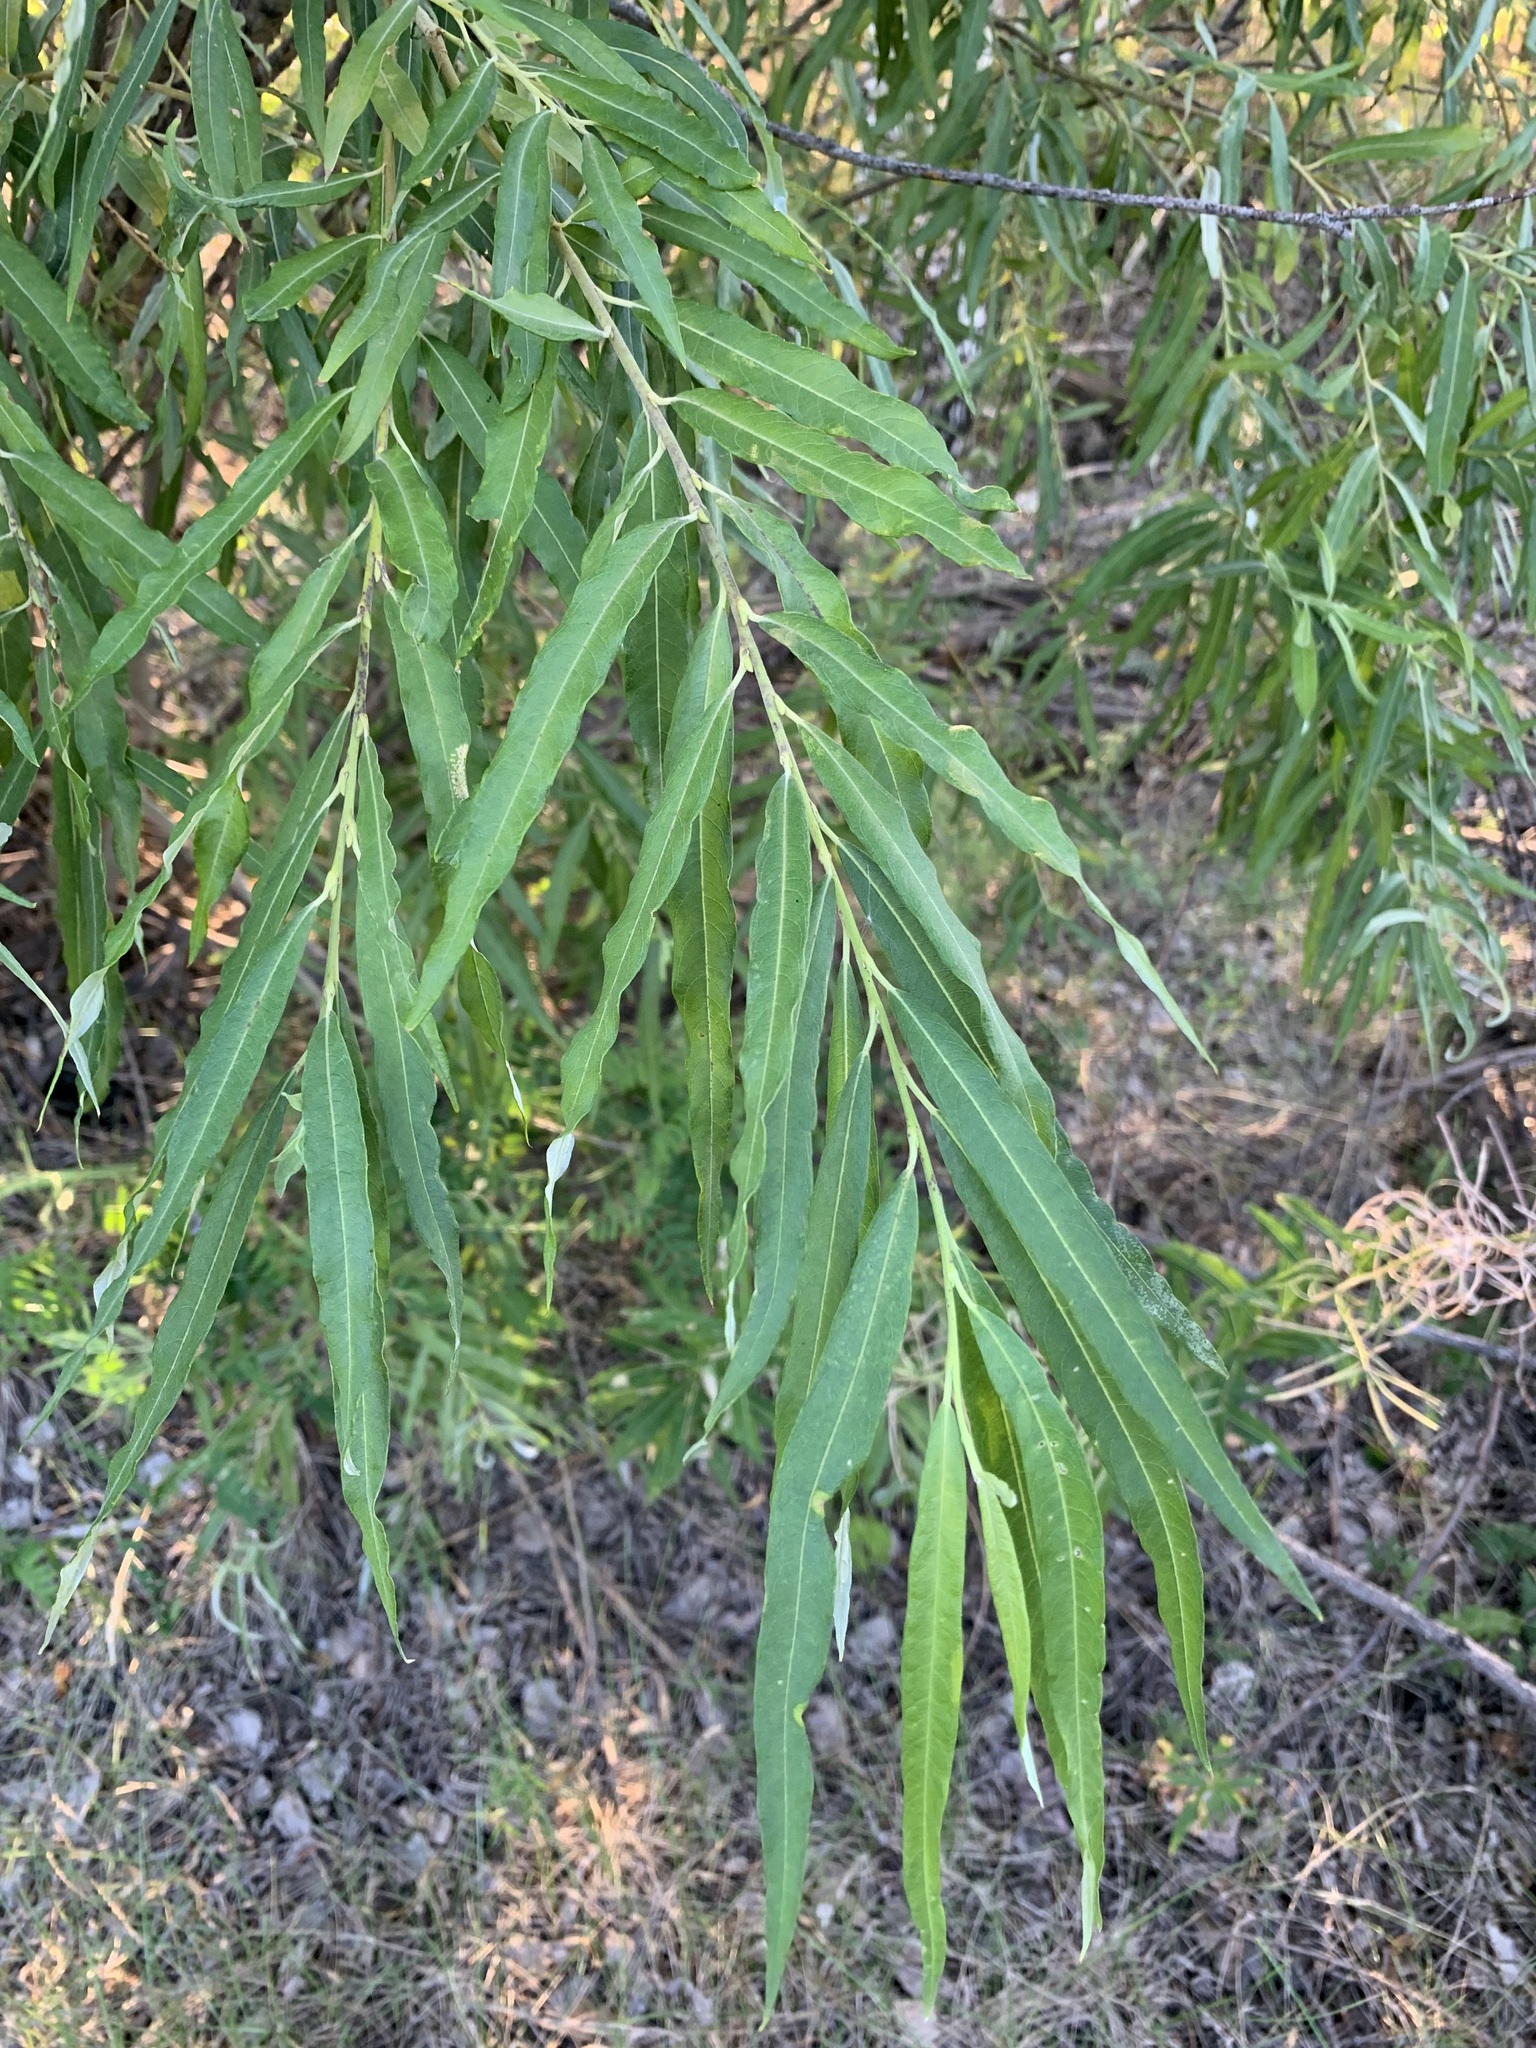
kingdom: Plantae
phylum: Tracheophyta
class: Magnoliopsida
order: Malpighiales
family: Salicaceae
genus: Salix
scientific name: Salix gmelinii
